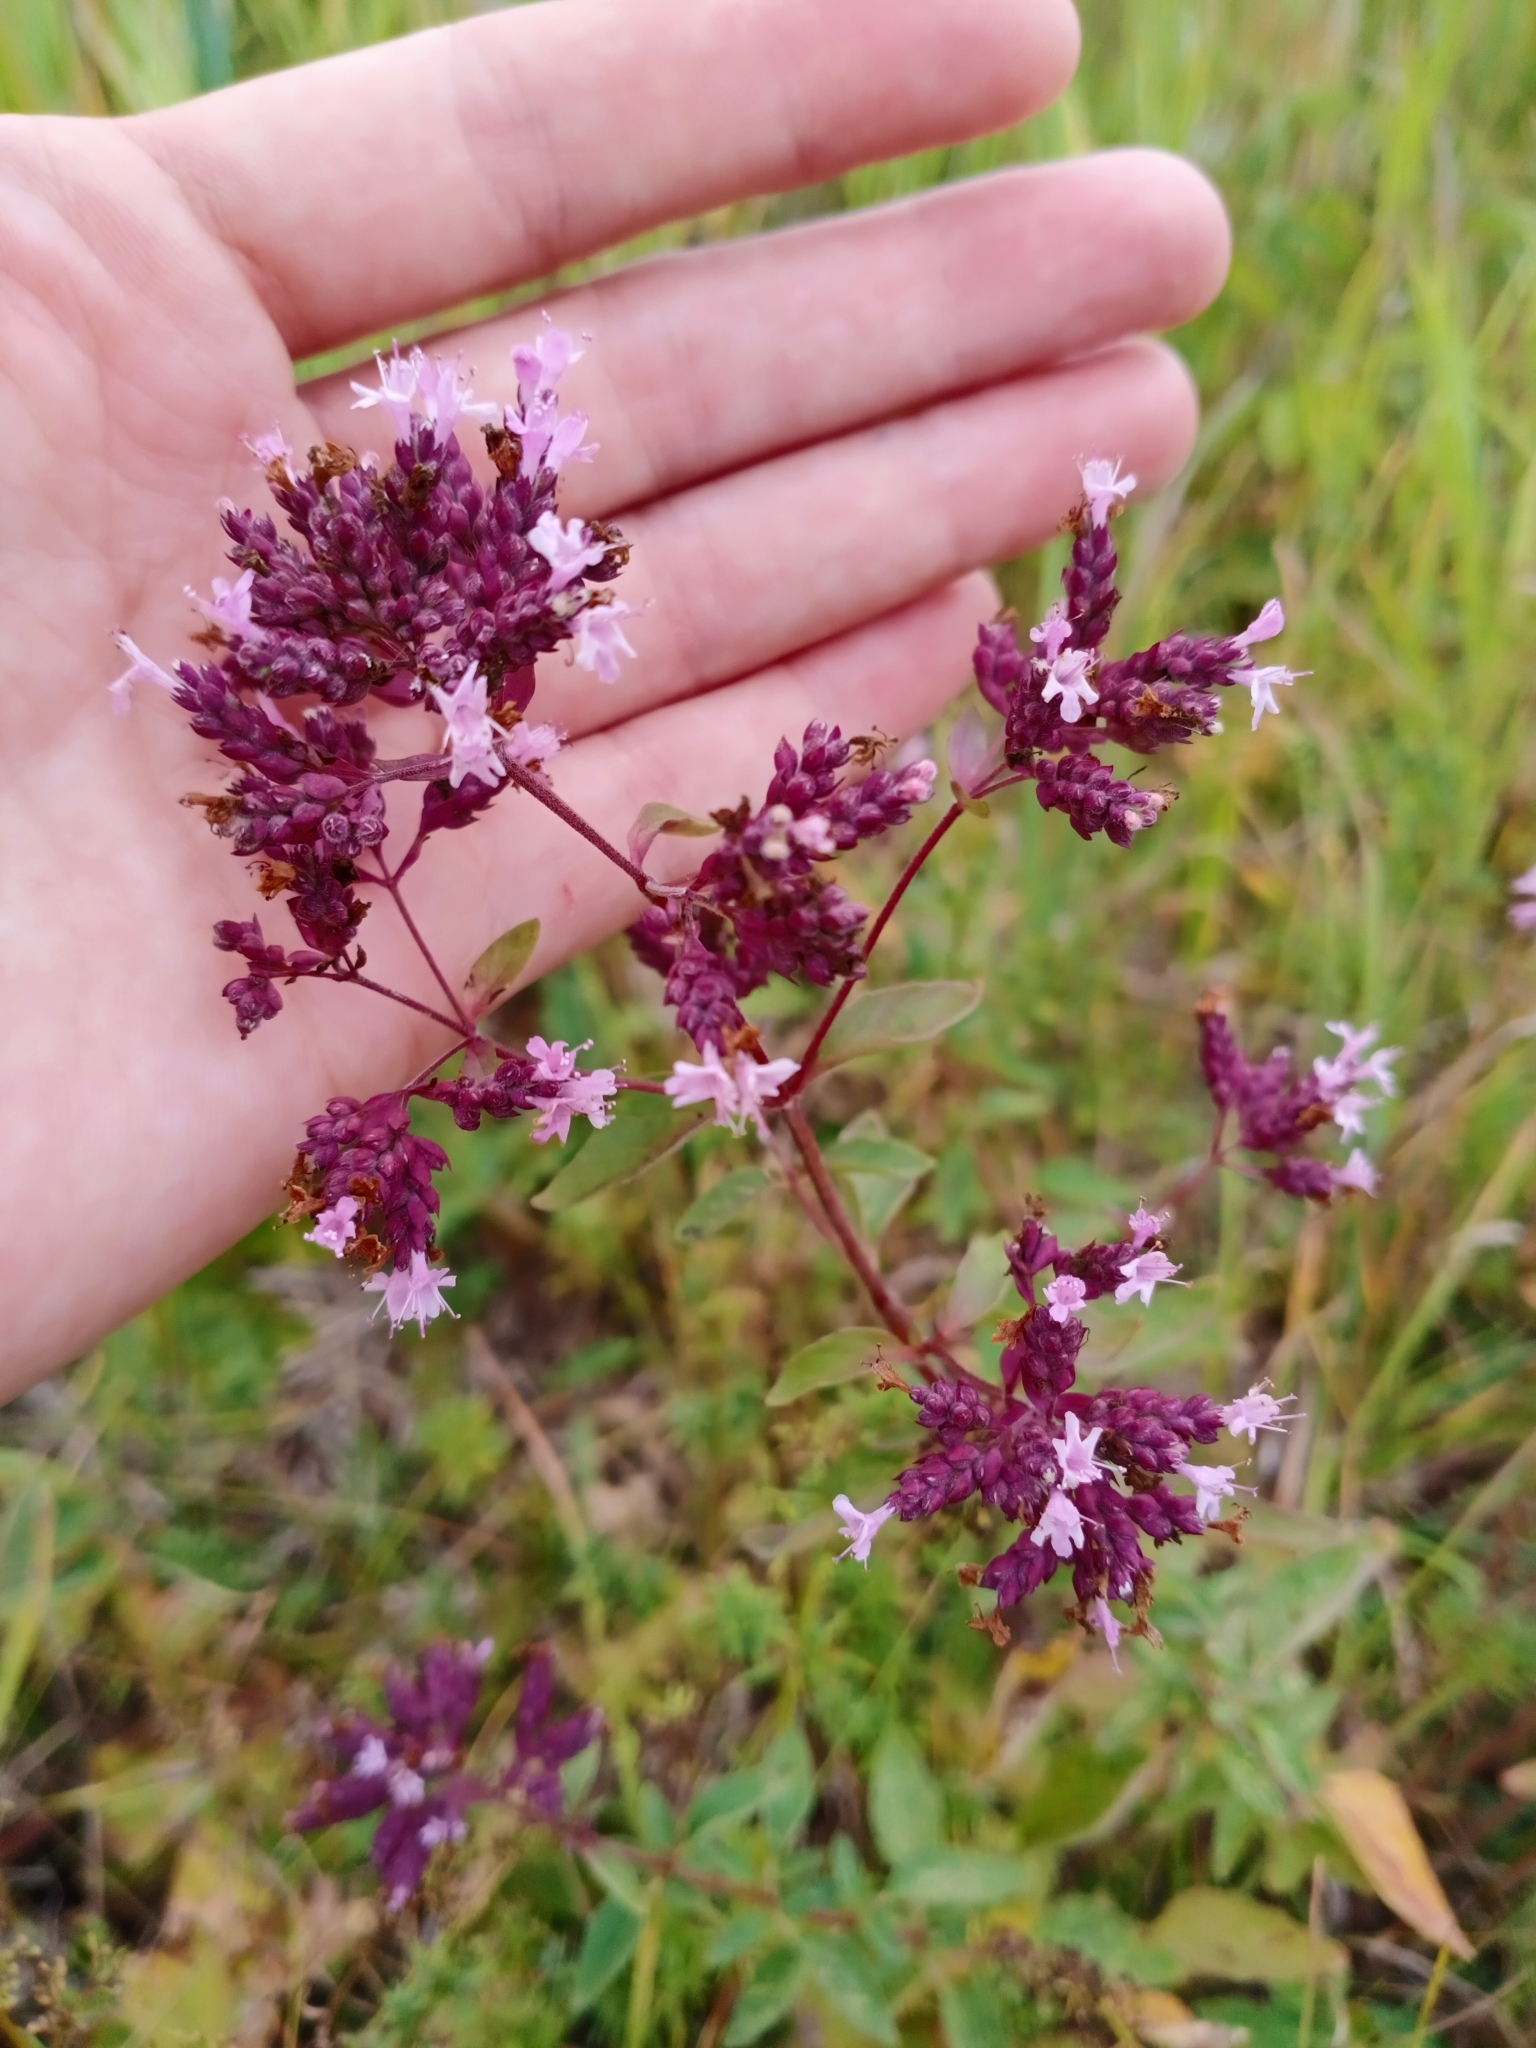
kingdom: Plantae
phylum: Tracheophyta
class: Magnoliopsida
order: Lamiales
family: Lamiaceae
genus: Origanum
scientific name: Origanum vulgare
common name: Wild marjoram
